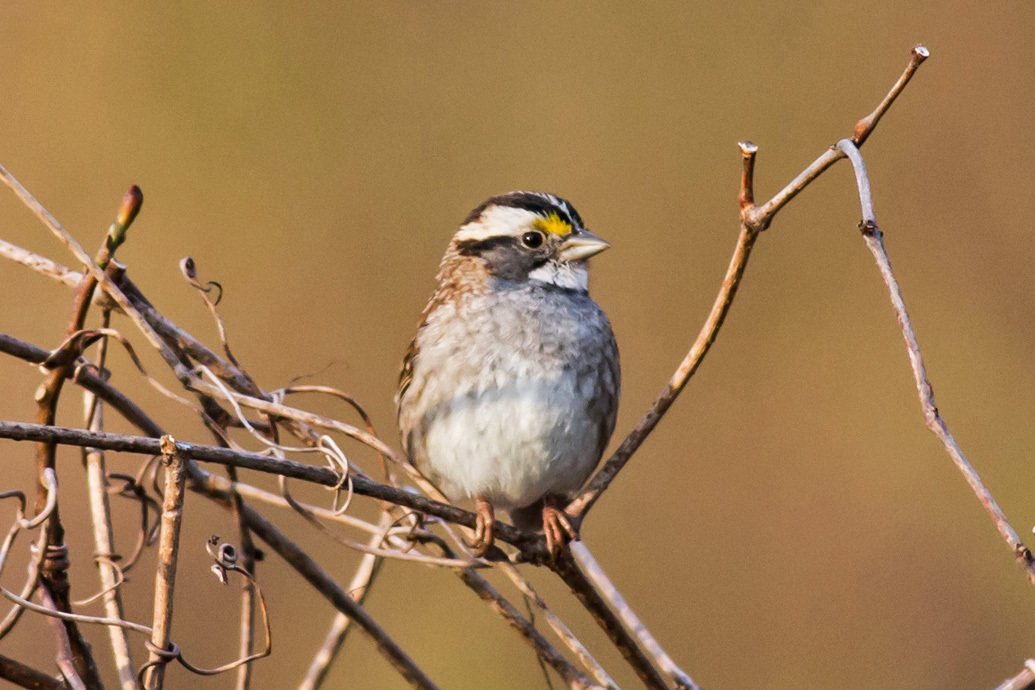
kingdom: Animalia
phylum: Chordata
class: Aves
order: Passeriformes
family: Passerellidae
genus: Zonotrichia
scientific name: Zonotrichia albicollis
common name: White-throated sparrow
